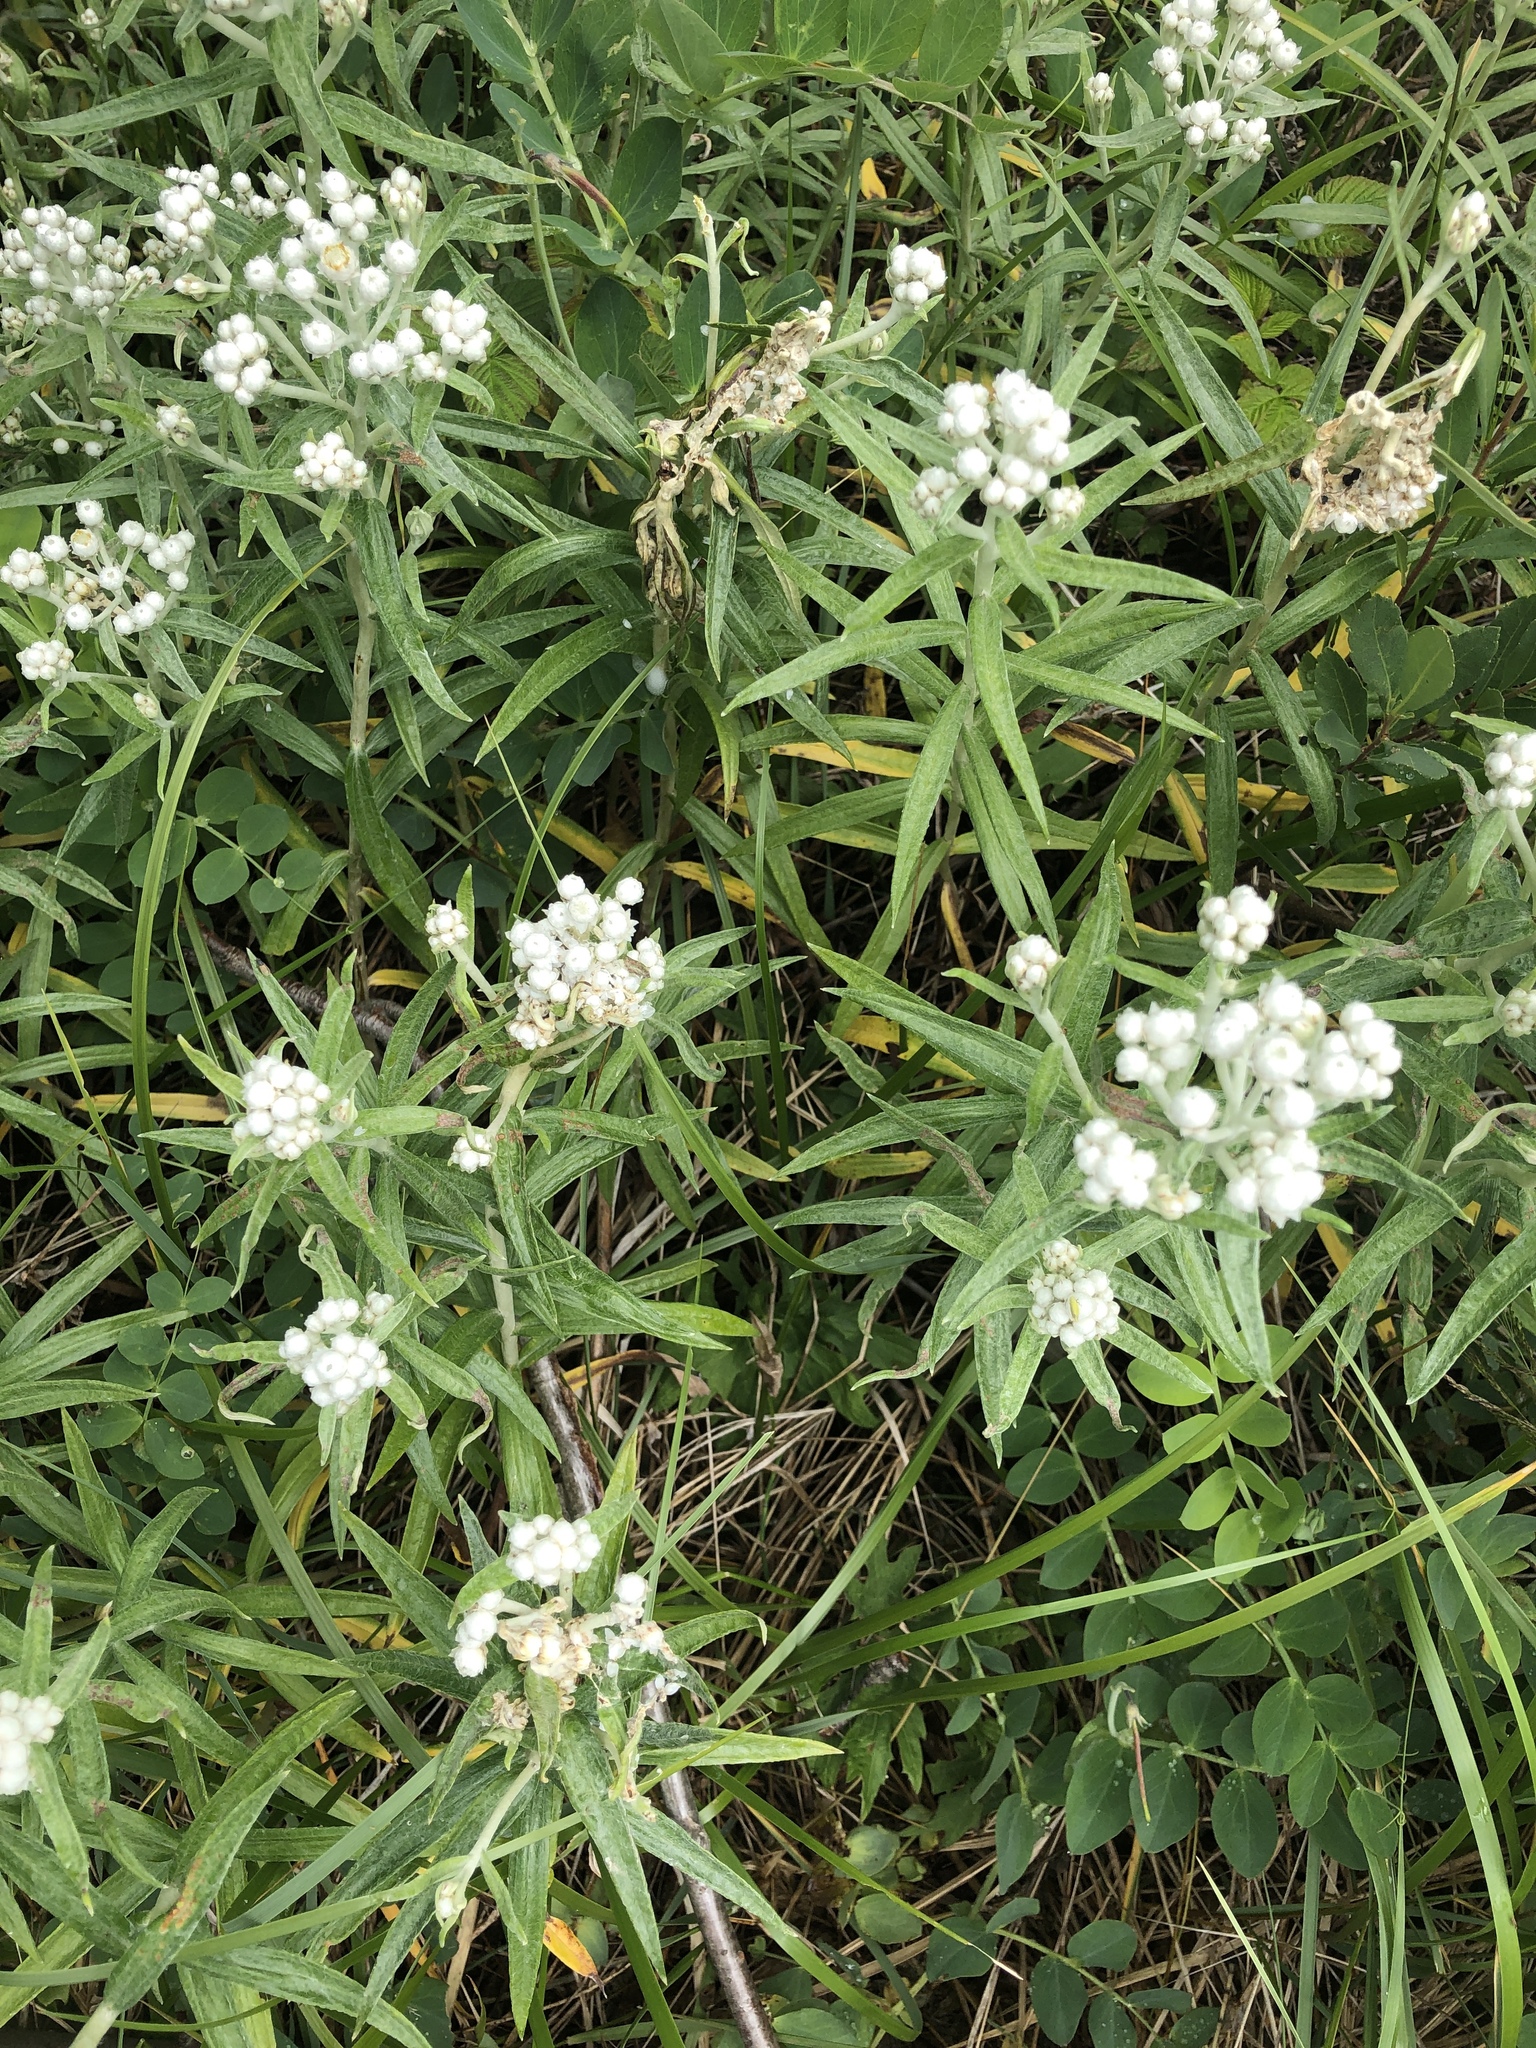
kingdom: Plantae
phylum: Tracheophyta
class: Magnoliopsida
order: Asterales
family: Asteraceae
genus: Anaphalis
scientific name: Anaphalis margaritacea
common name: Pearly everlasting
